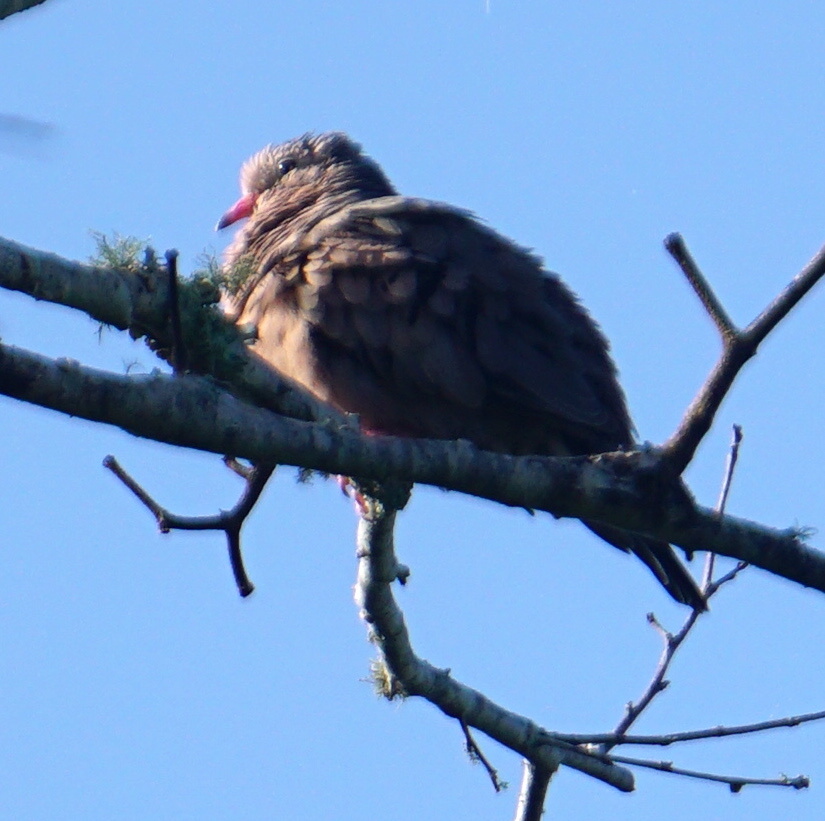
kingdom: Animalia
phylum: Chordata
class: Aves
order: Columbiformes
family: Columbidae
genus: Columbina
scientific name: Columbina passerina
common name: Common ground-dove
